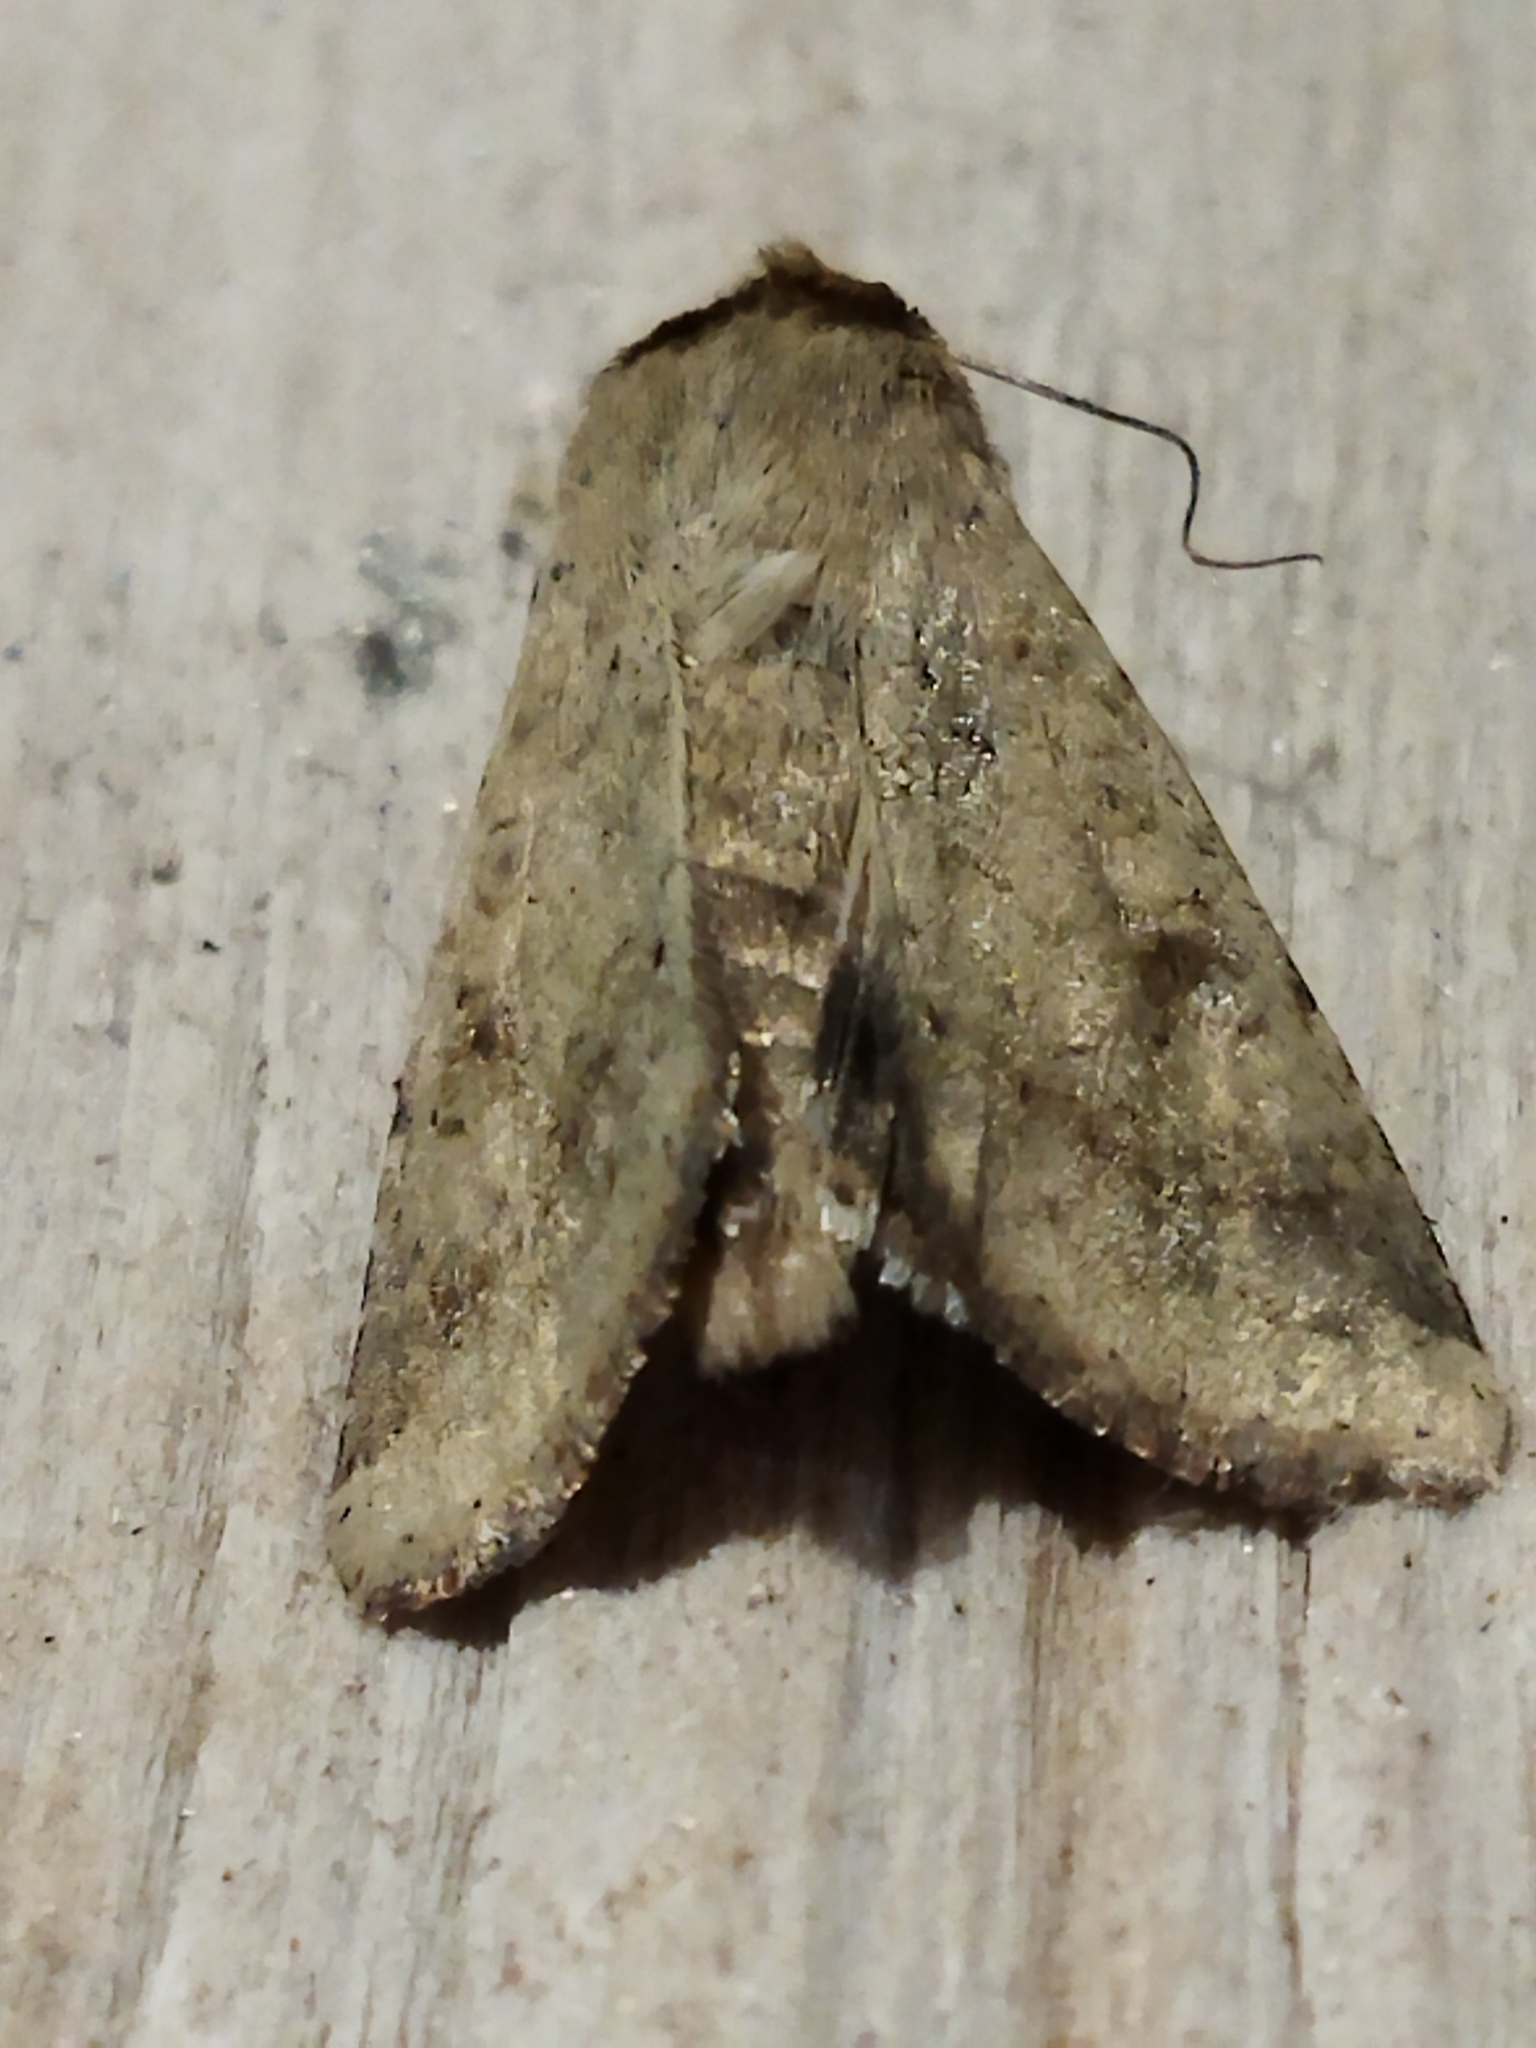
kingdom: Animalia
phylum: Arthropoda
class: Insecta
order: Lepidoptera
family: Noctuidae
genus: Helicoverpa
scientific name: Helicoverpa armigera
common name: Cotton bollworm
